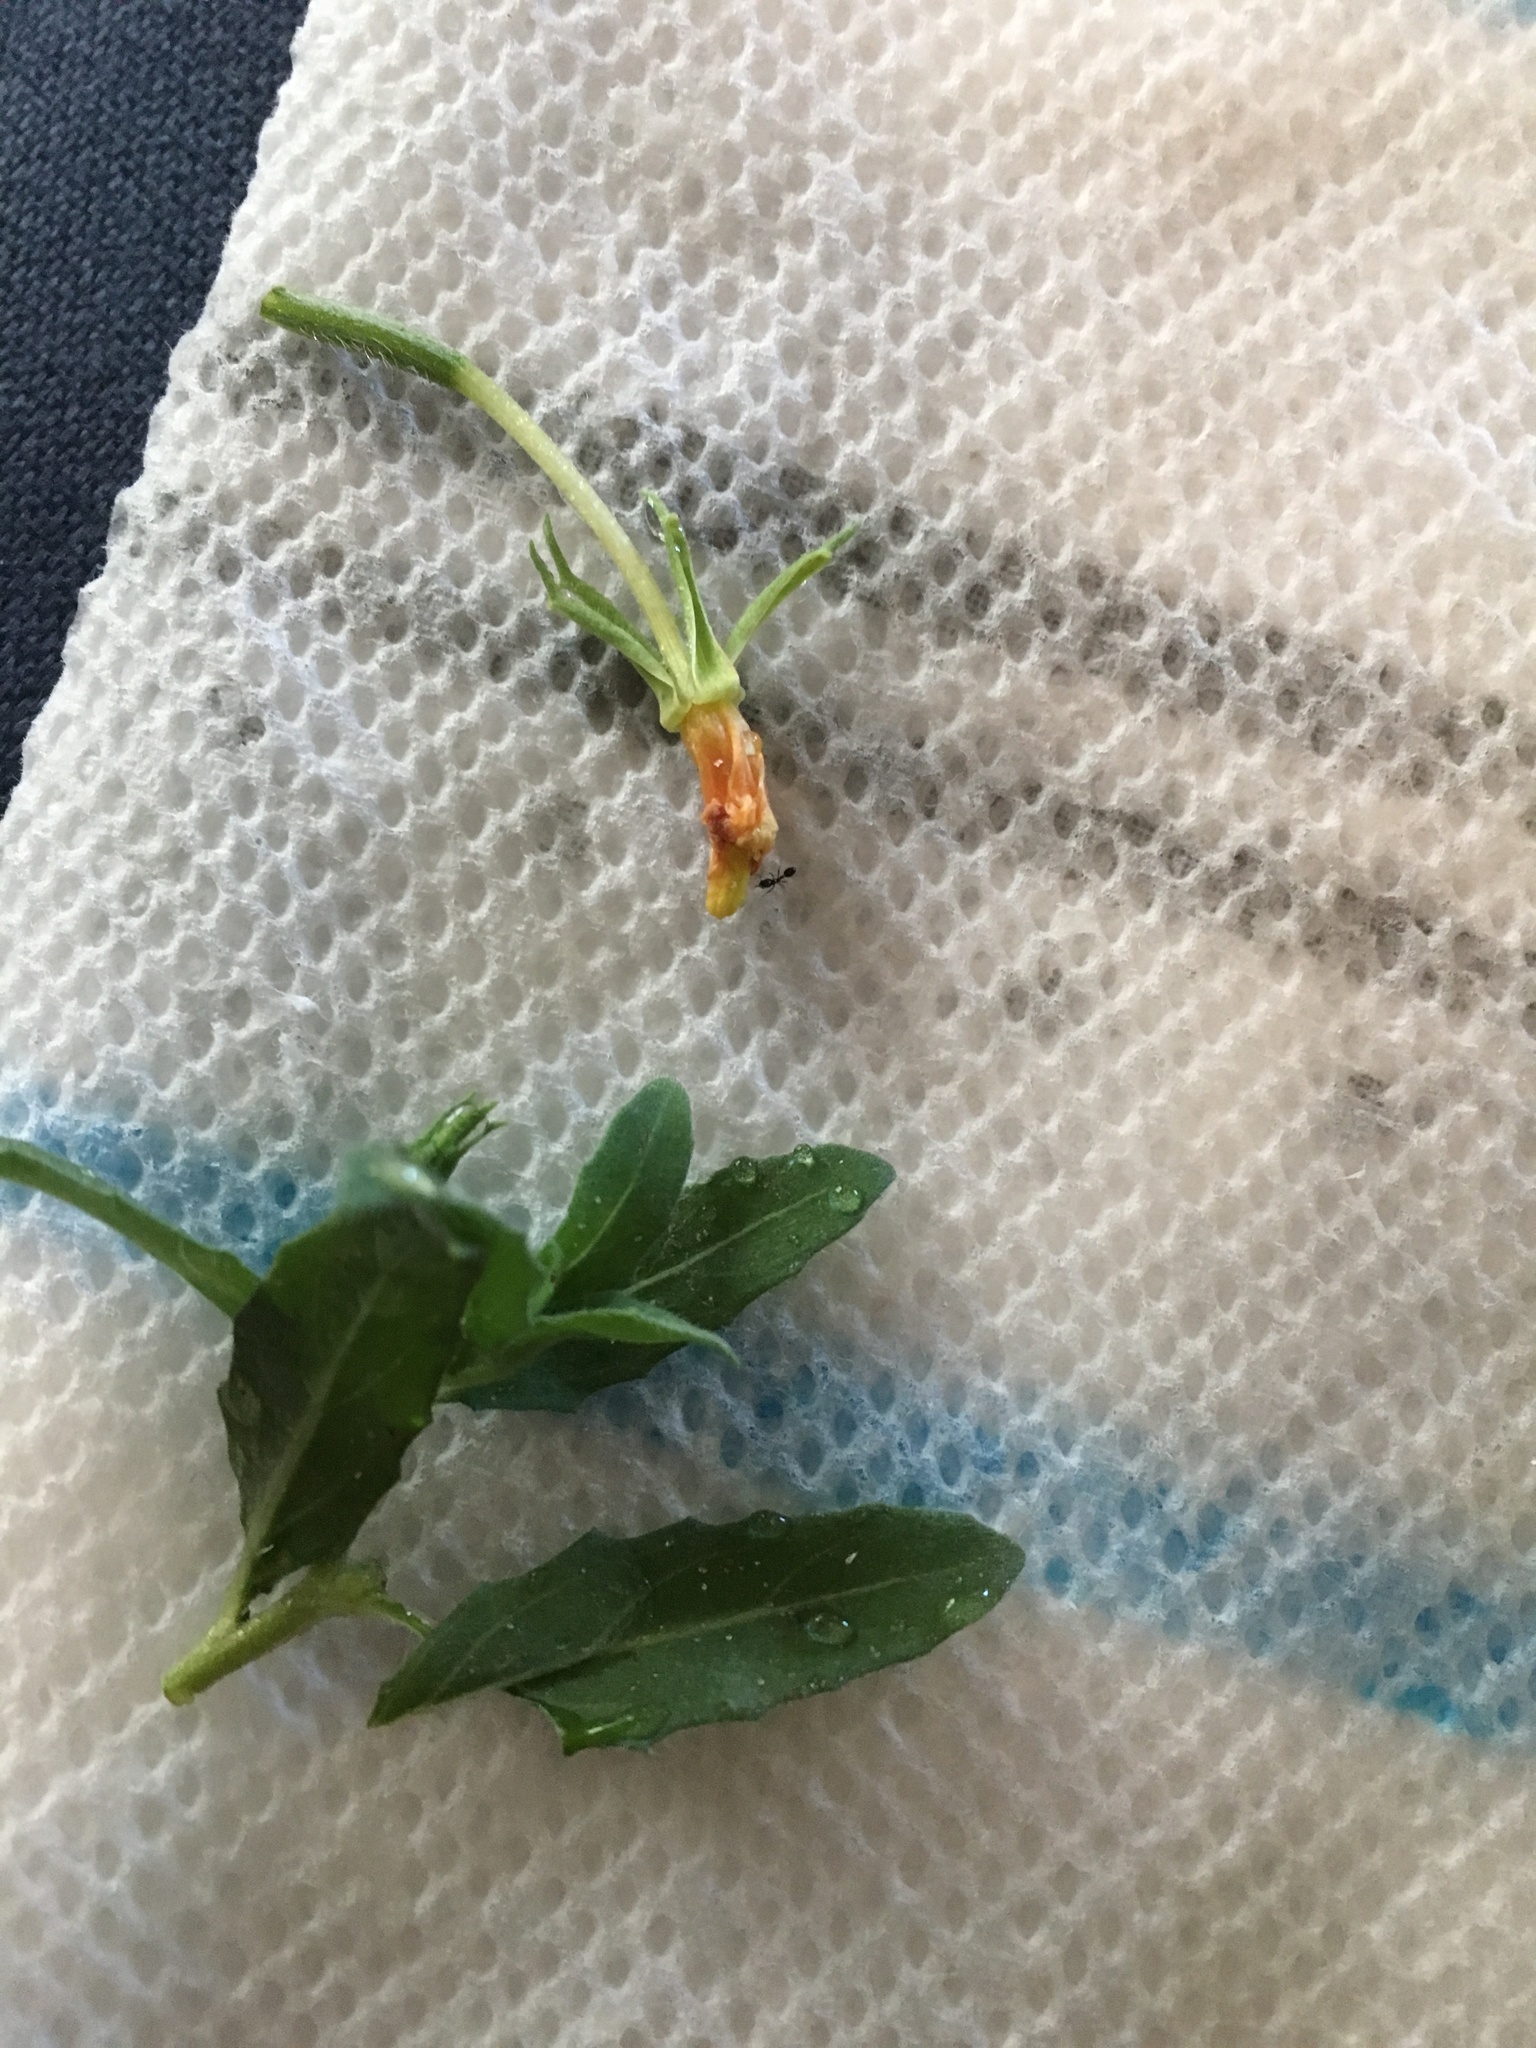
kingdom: Plantae
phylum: Tracheophyta
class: Magnoliopsida
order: Myrtales
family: Onagraceae
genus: Oenothera
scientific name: Oenothera humifusa
